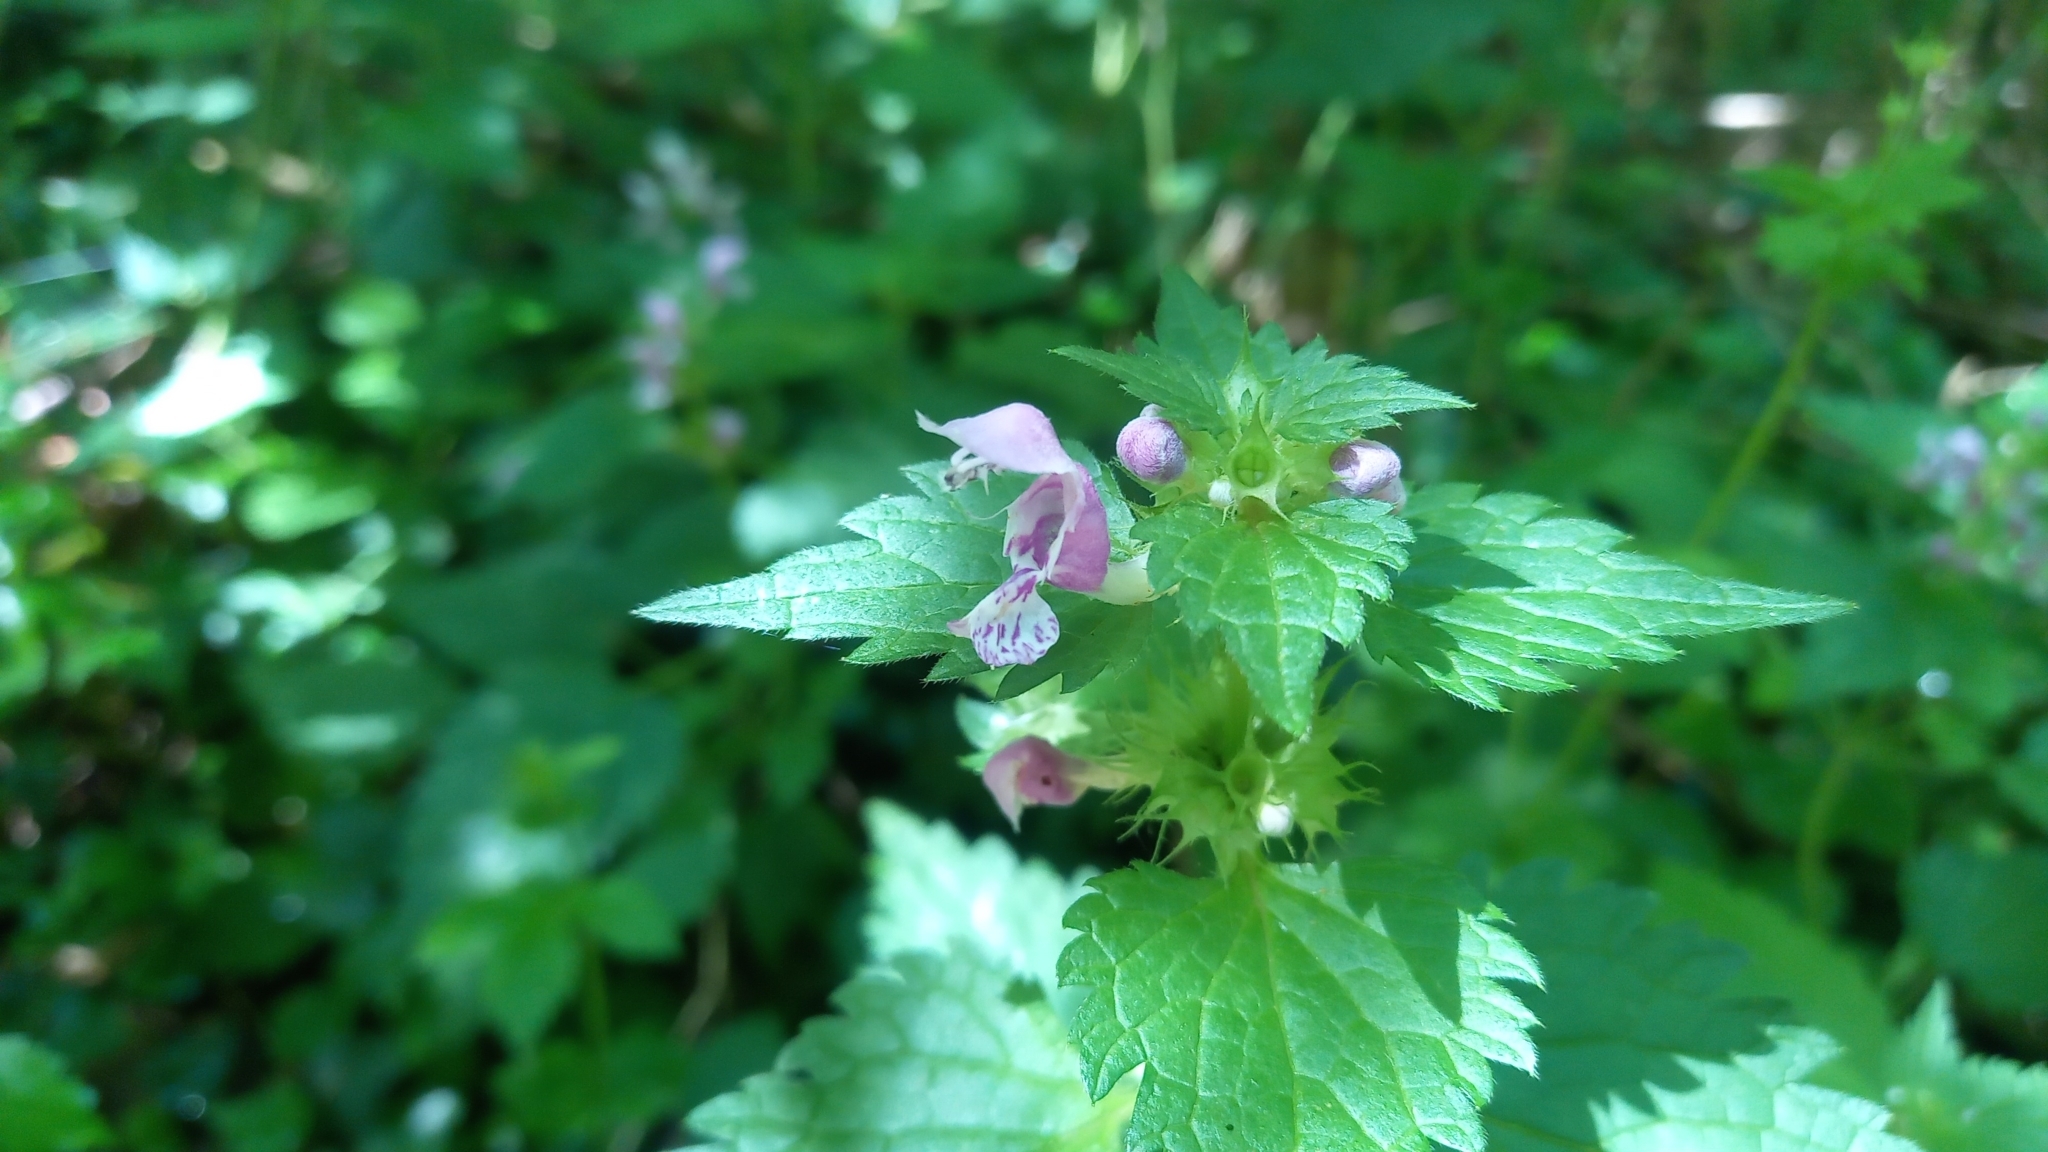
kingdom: Plantae
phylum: Tracheophyta
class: Magnoliopsida
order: Lamiales
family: Lamiaceae
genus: Lamium
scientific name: Lamium maculatum
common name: Spotted dead-nettle
